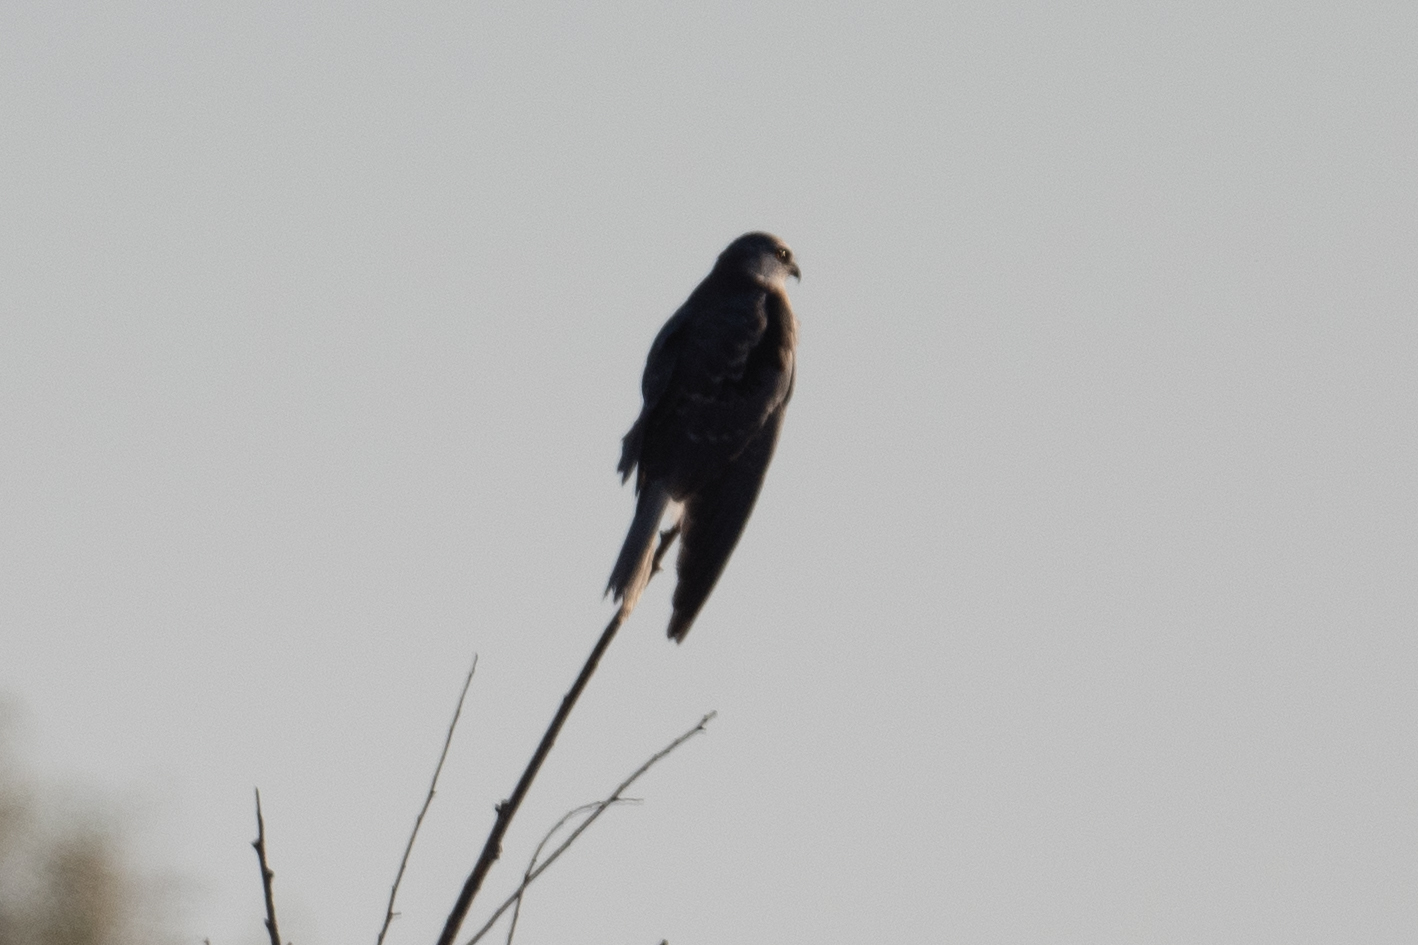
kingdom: Animalia
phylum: Chordata
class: Aves
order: Accipitriformes
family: Accipitridae
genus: Elanus
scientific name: Elanus leucurus
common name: White-tailed kite
